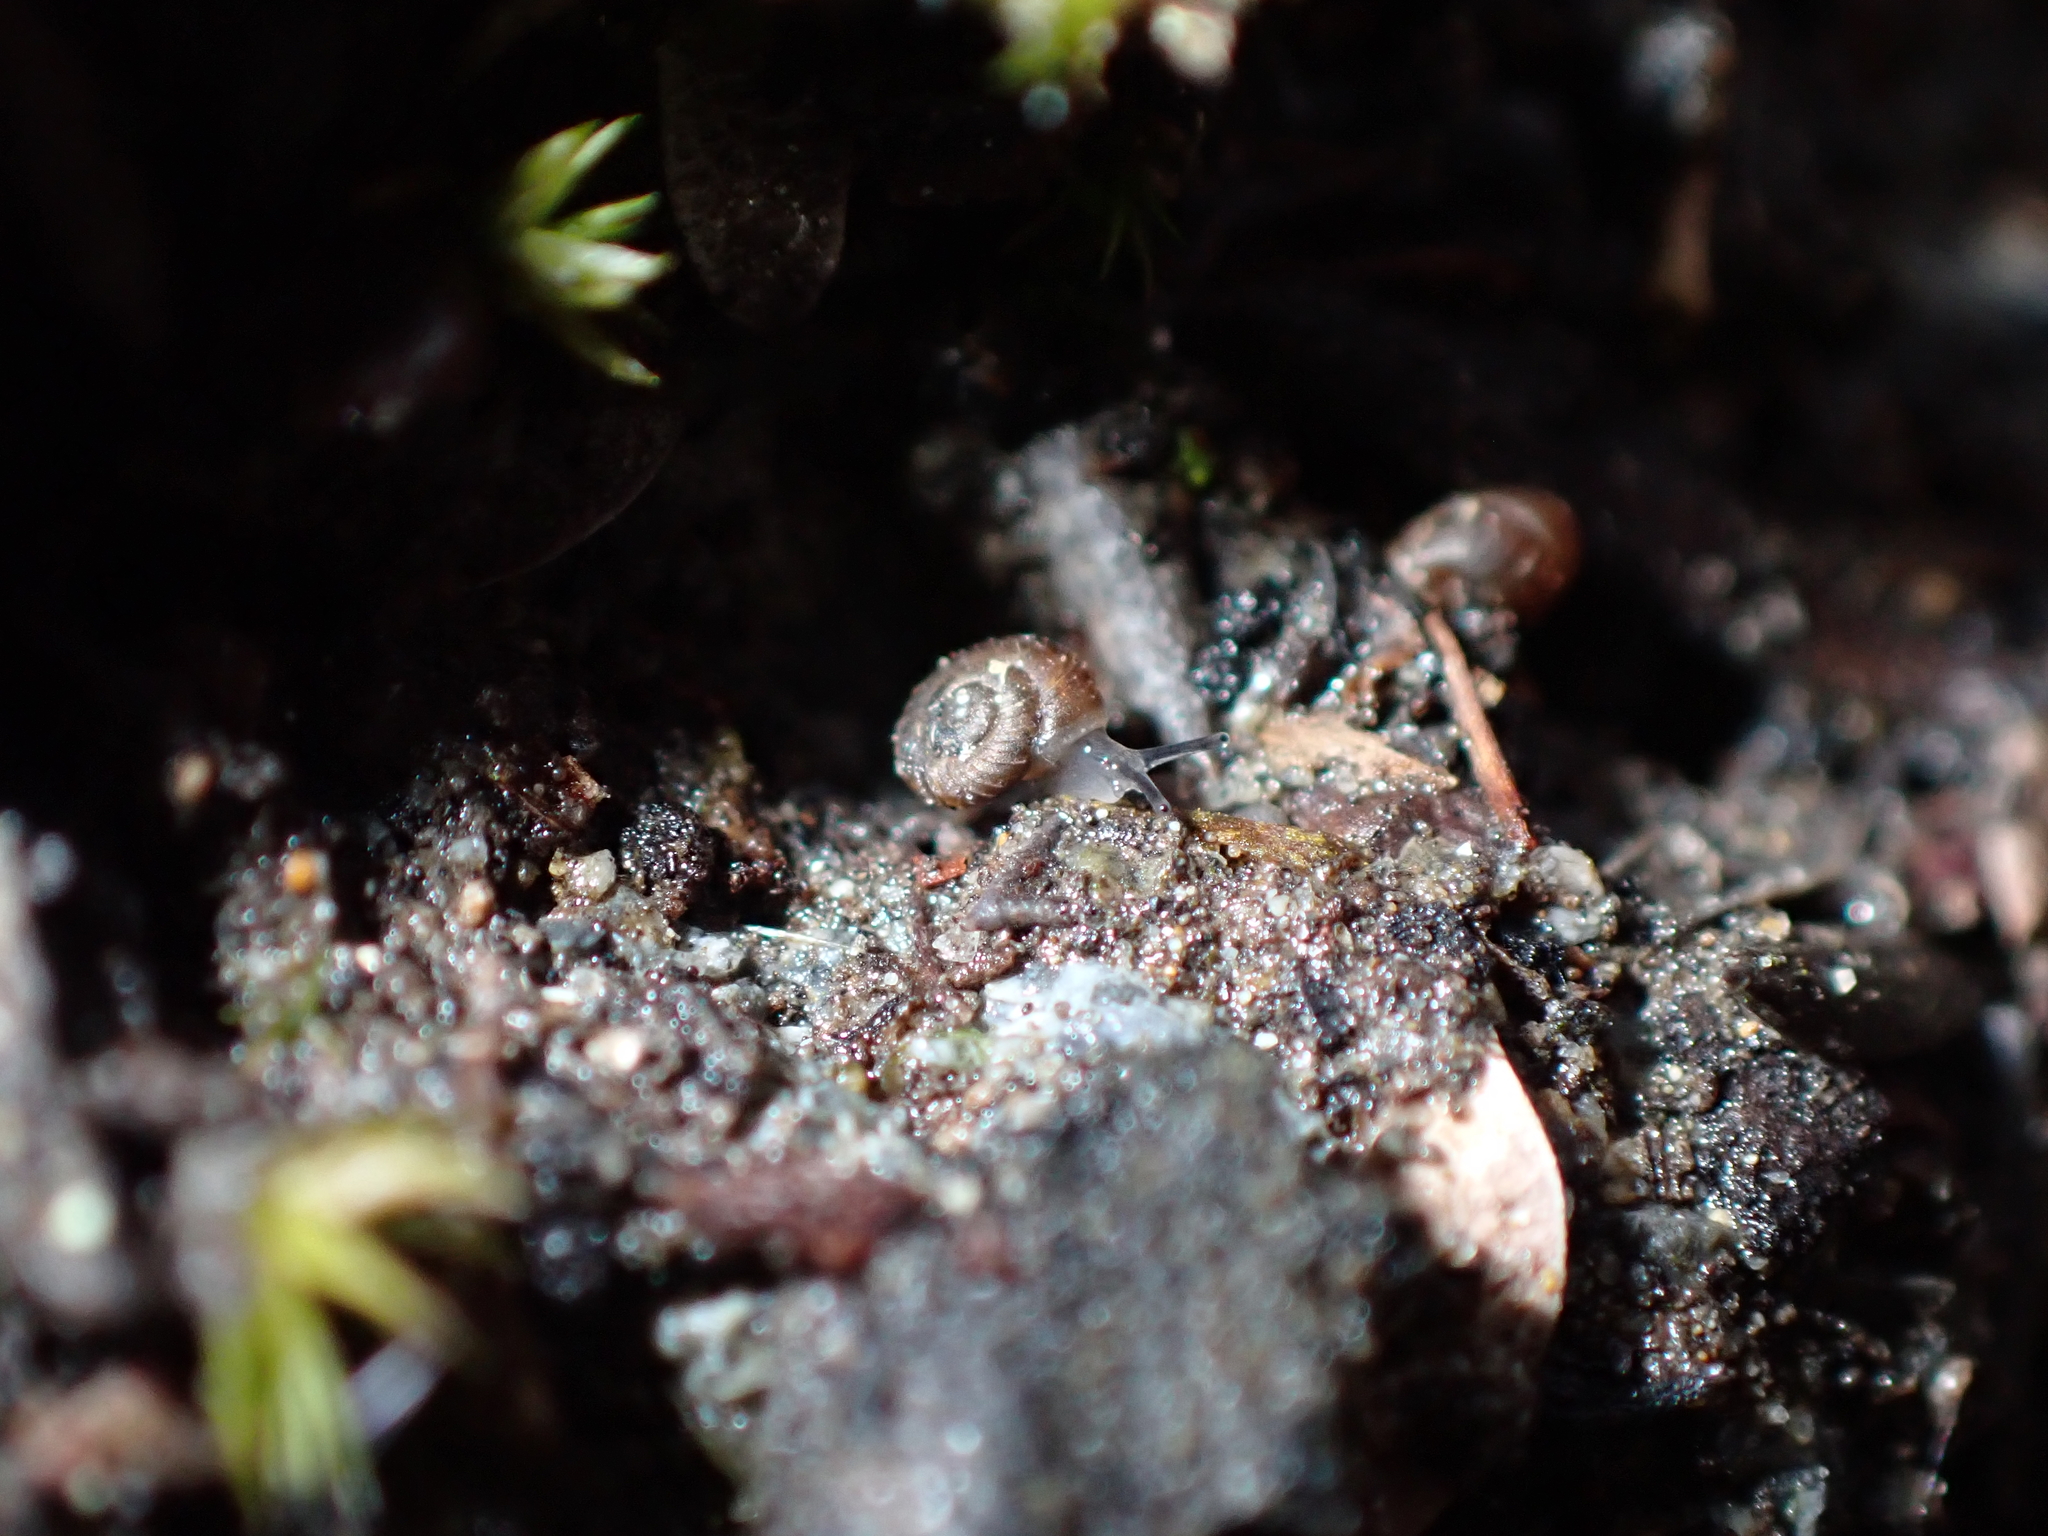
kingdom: Animalia
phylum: Mollusca
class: Gastropoda
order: Stylommatophora
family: Punctidae
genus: Paralaoma
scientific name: Paralaoma servilis
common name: Pinhead spot
